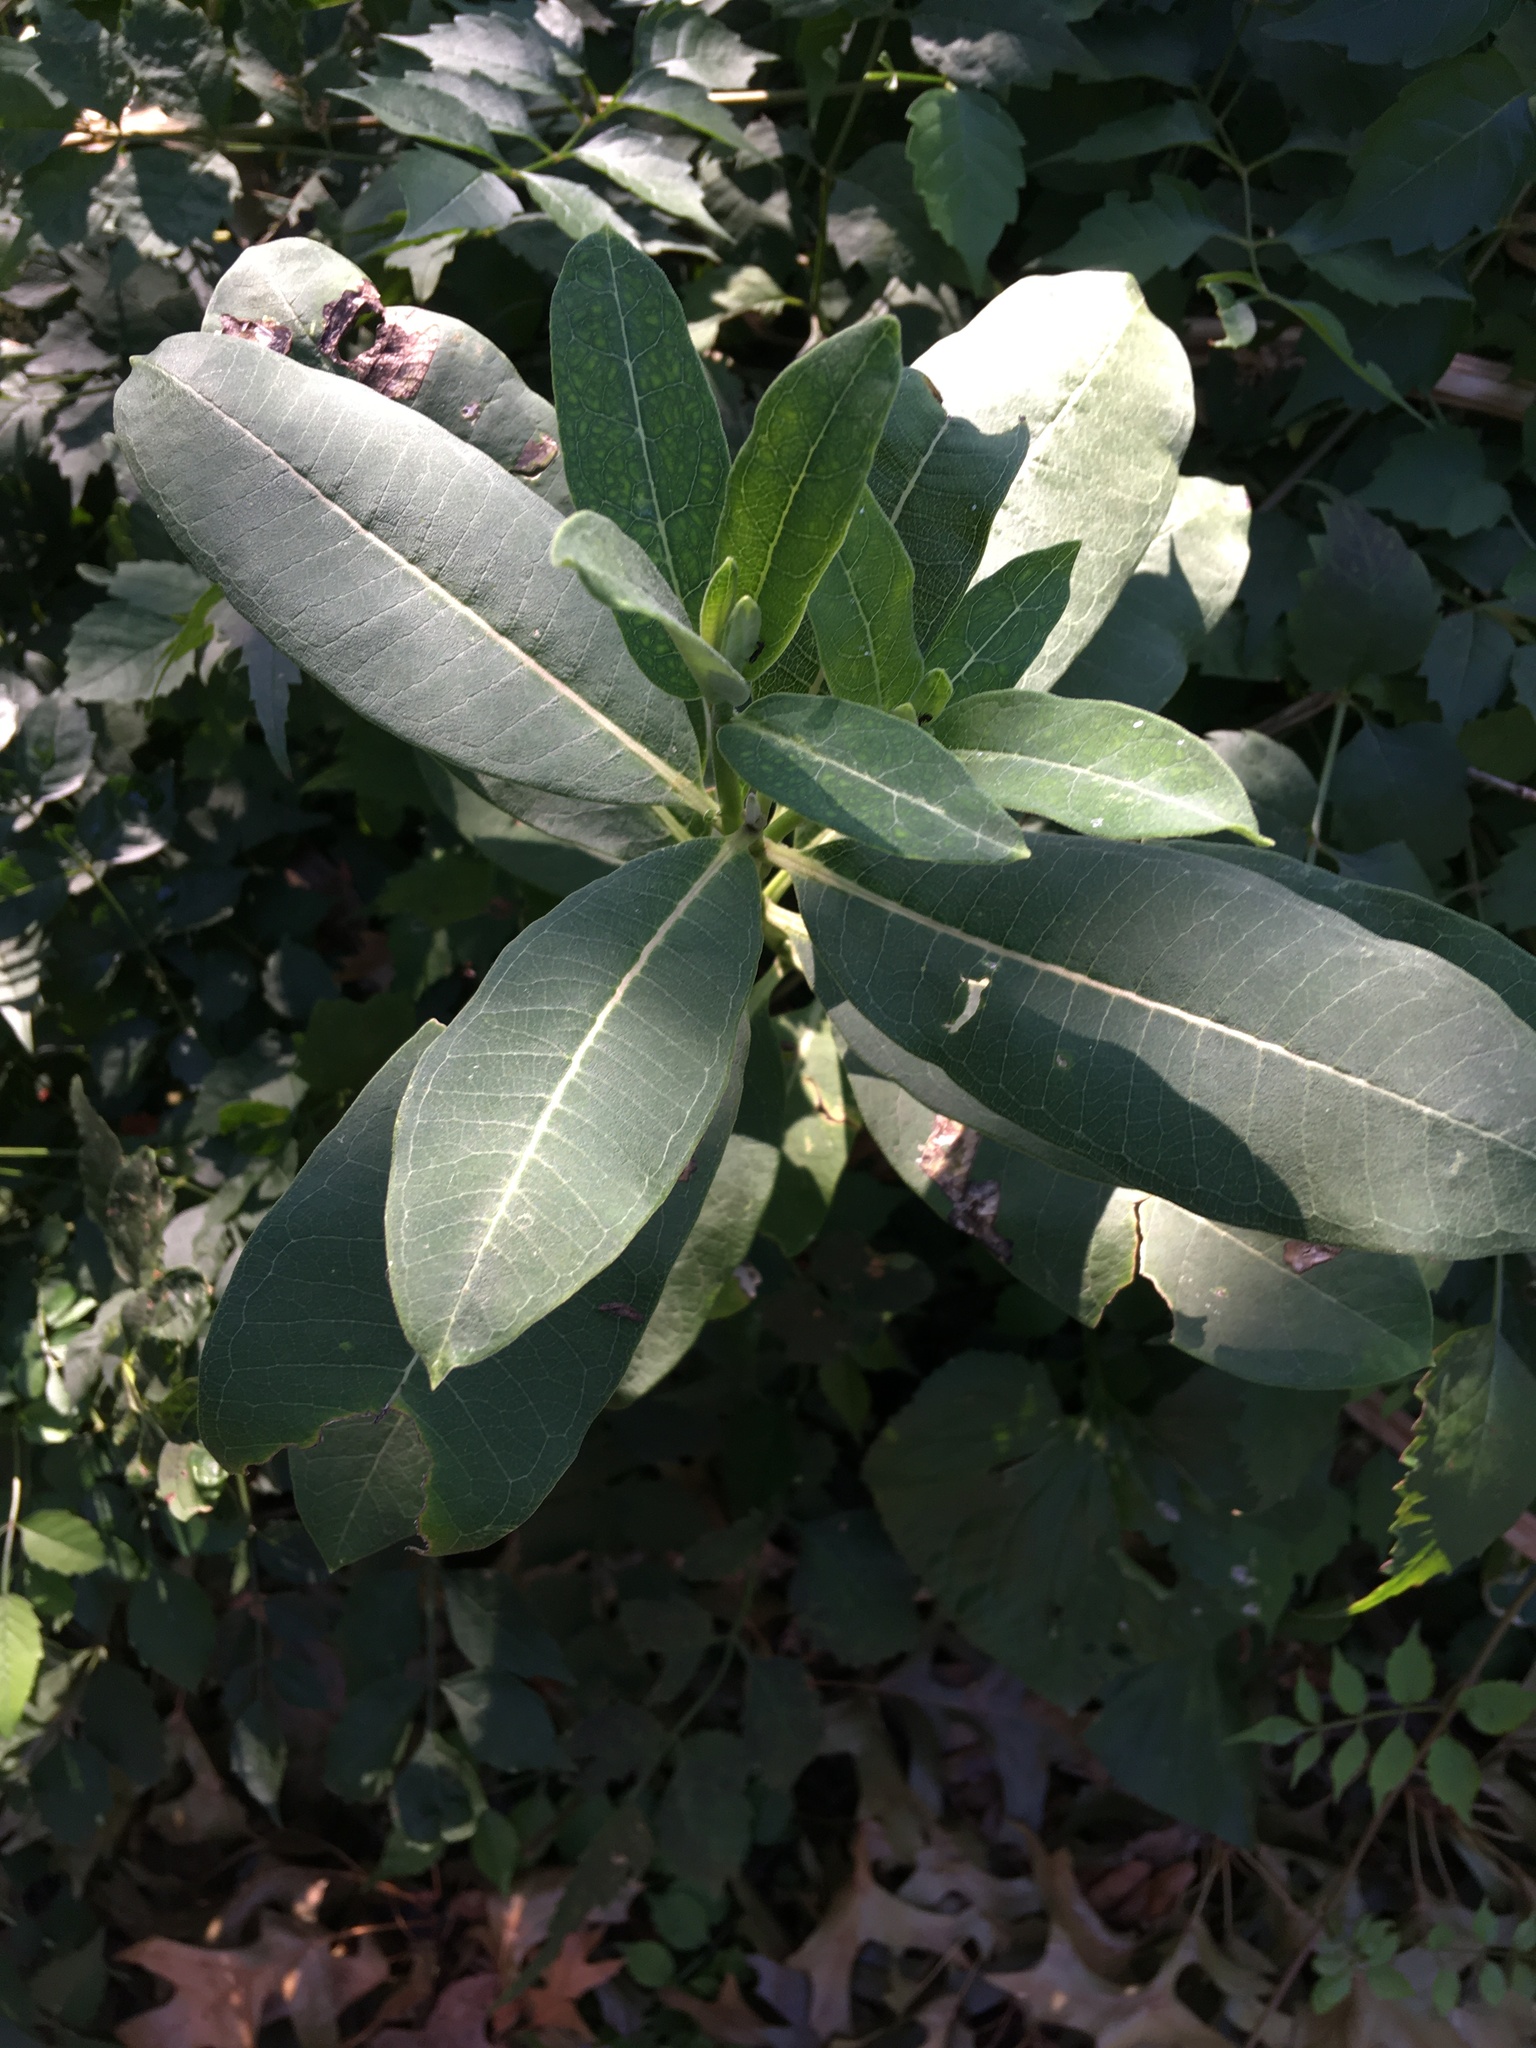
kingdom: Plantae
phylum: Tracheophyta
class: Magnoliopsida
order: Gentianales
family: Apocynaceae
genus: Asclepias
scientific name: Asclepias syriaca
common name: Common milkweed
